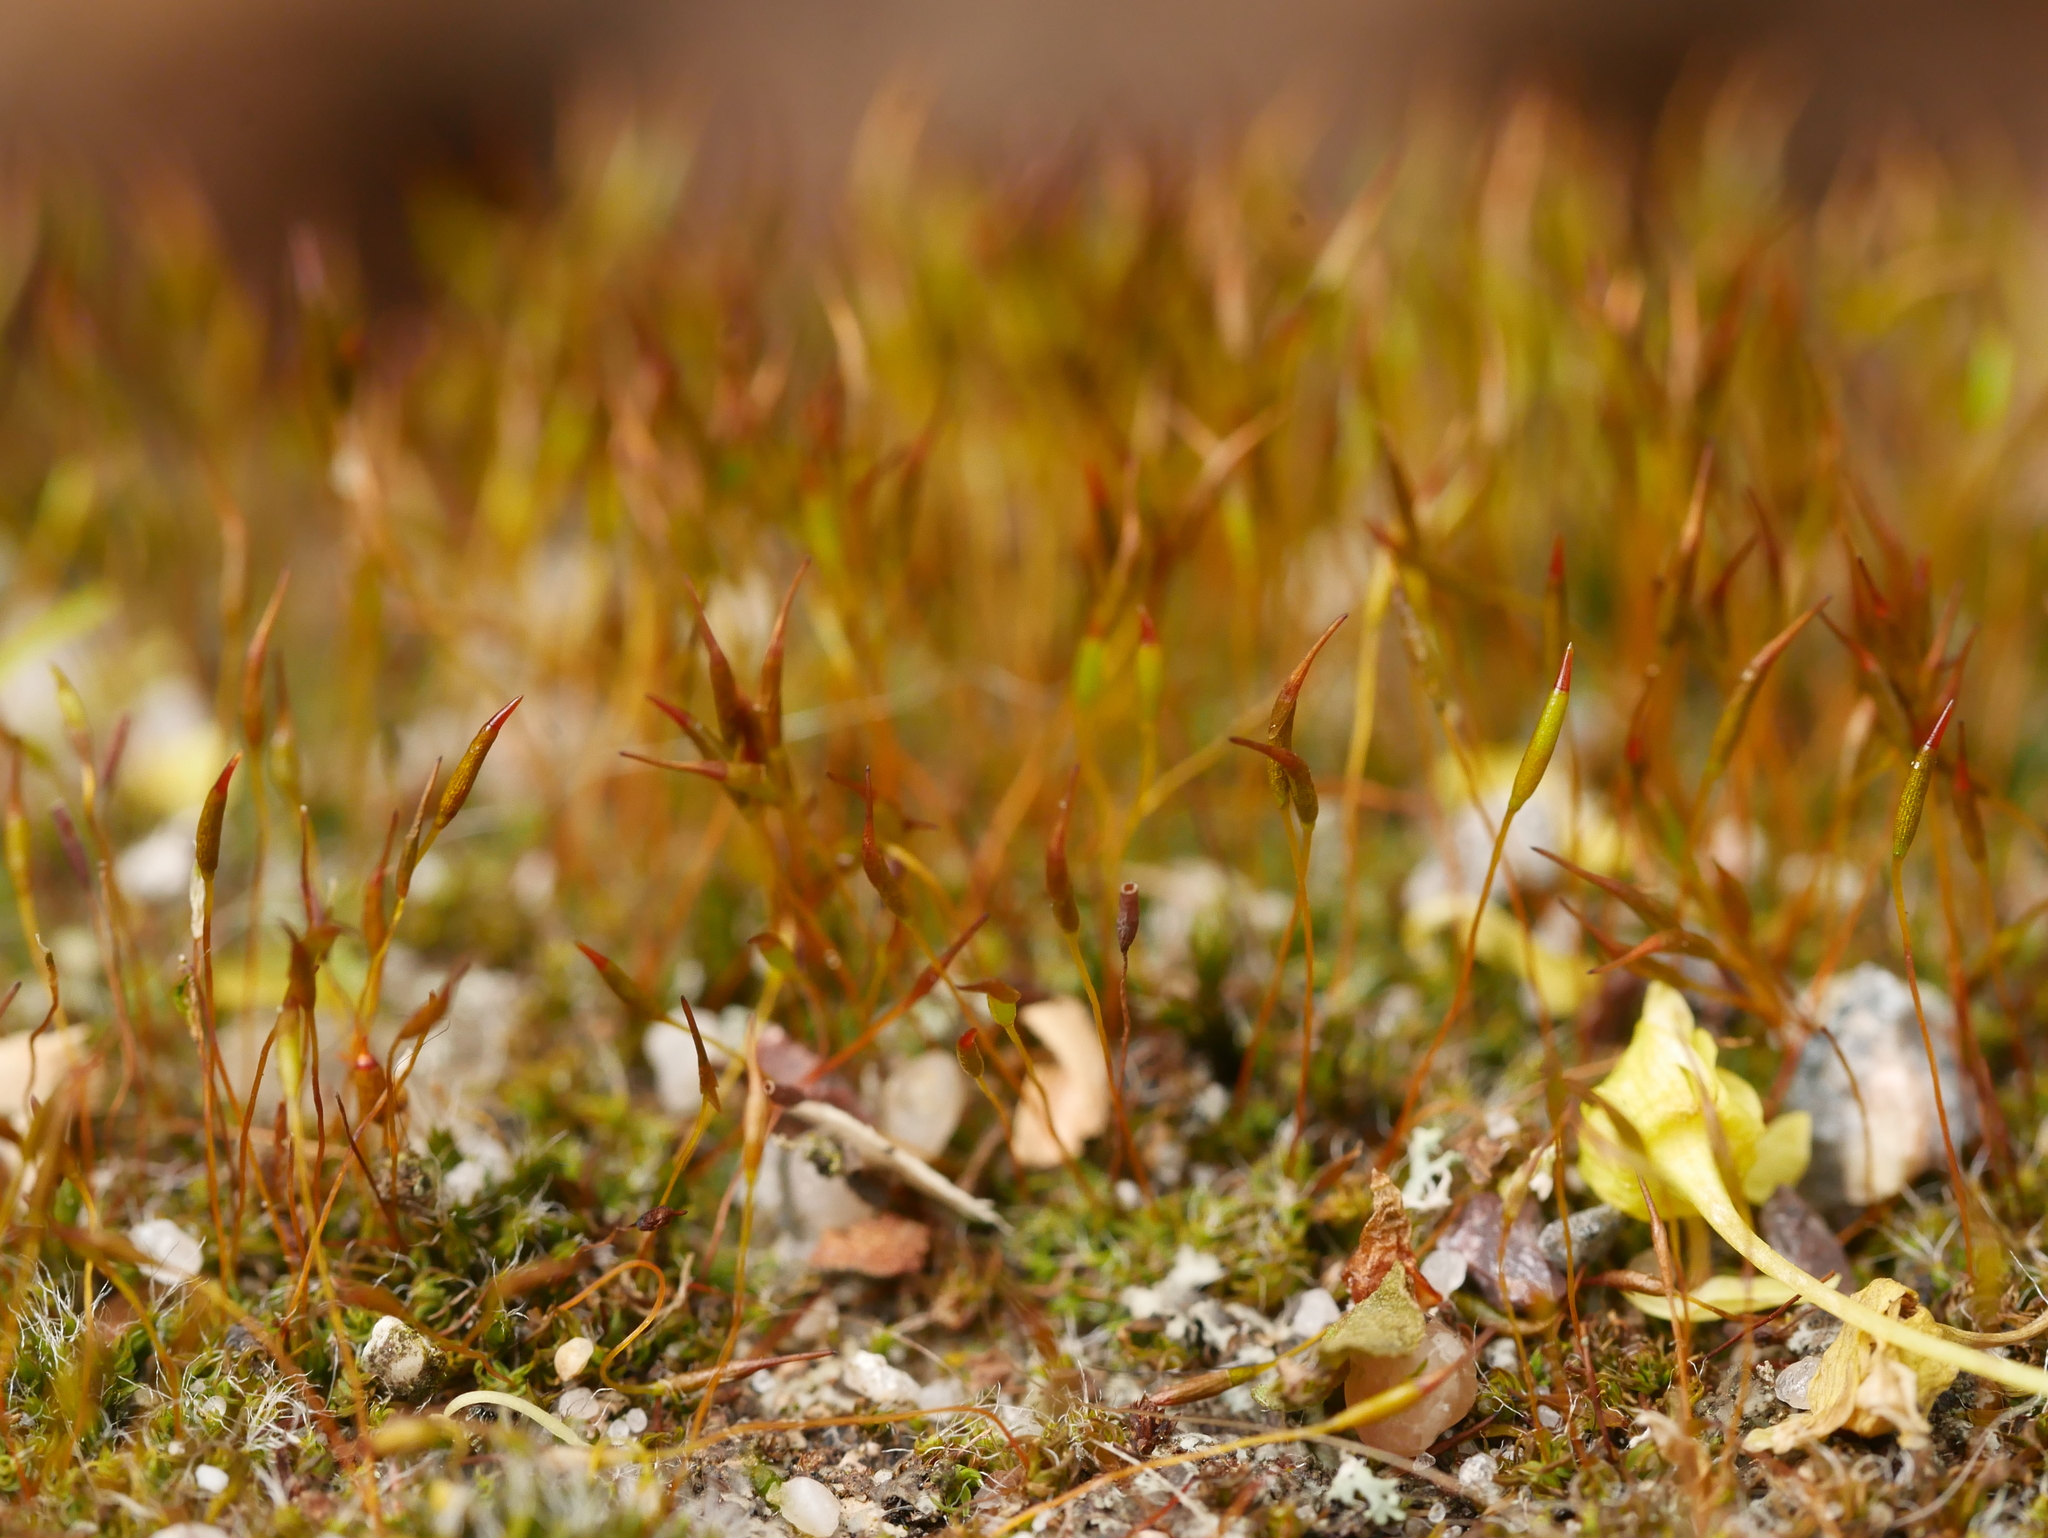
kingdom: Plantae
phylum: Bryophyta
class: Bryopsida
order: Pottiales
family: Pottiaceae
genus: Tortula
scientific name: Tortula muralis
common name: Wall screw-moss
